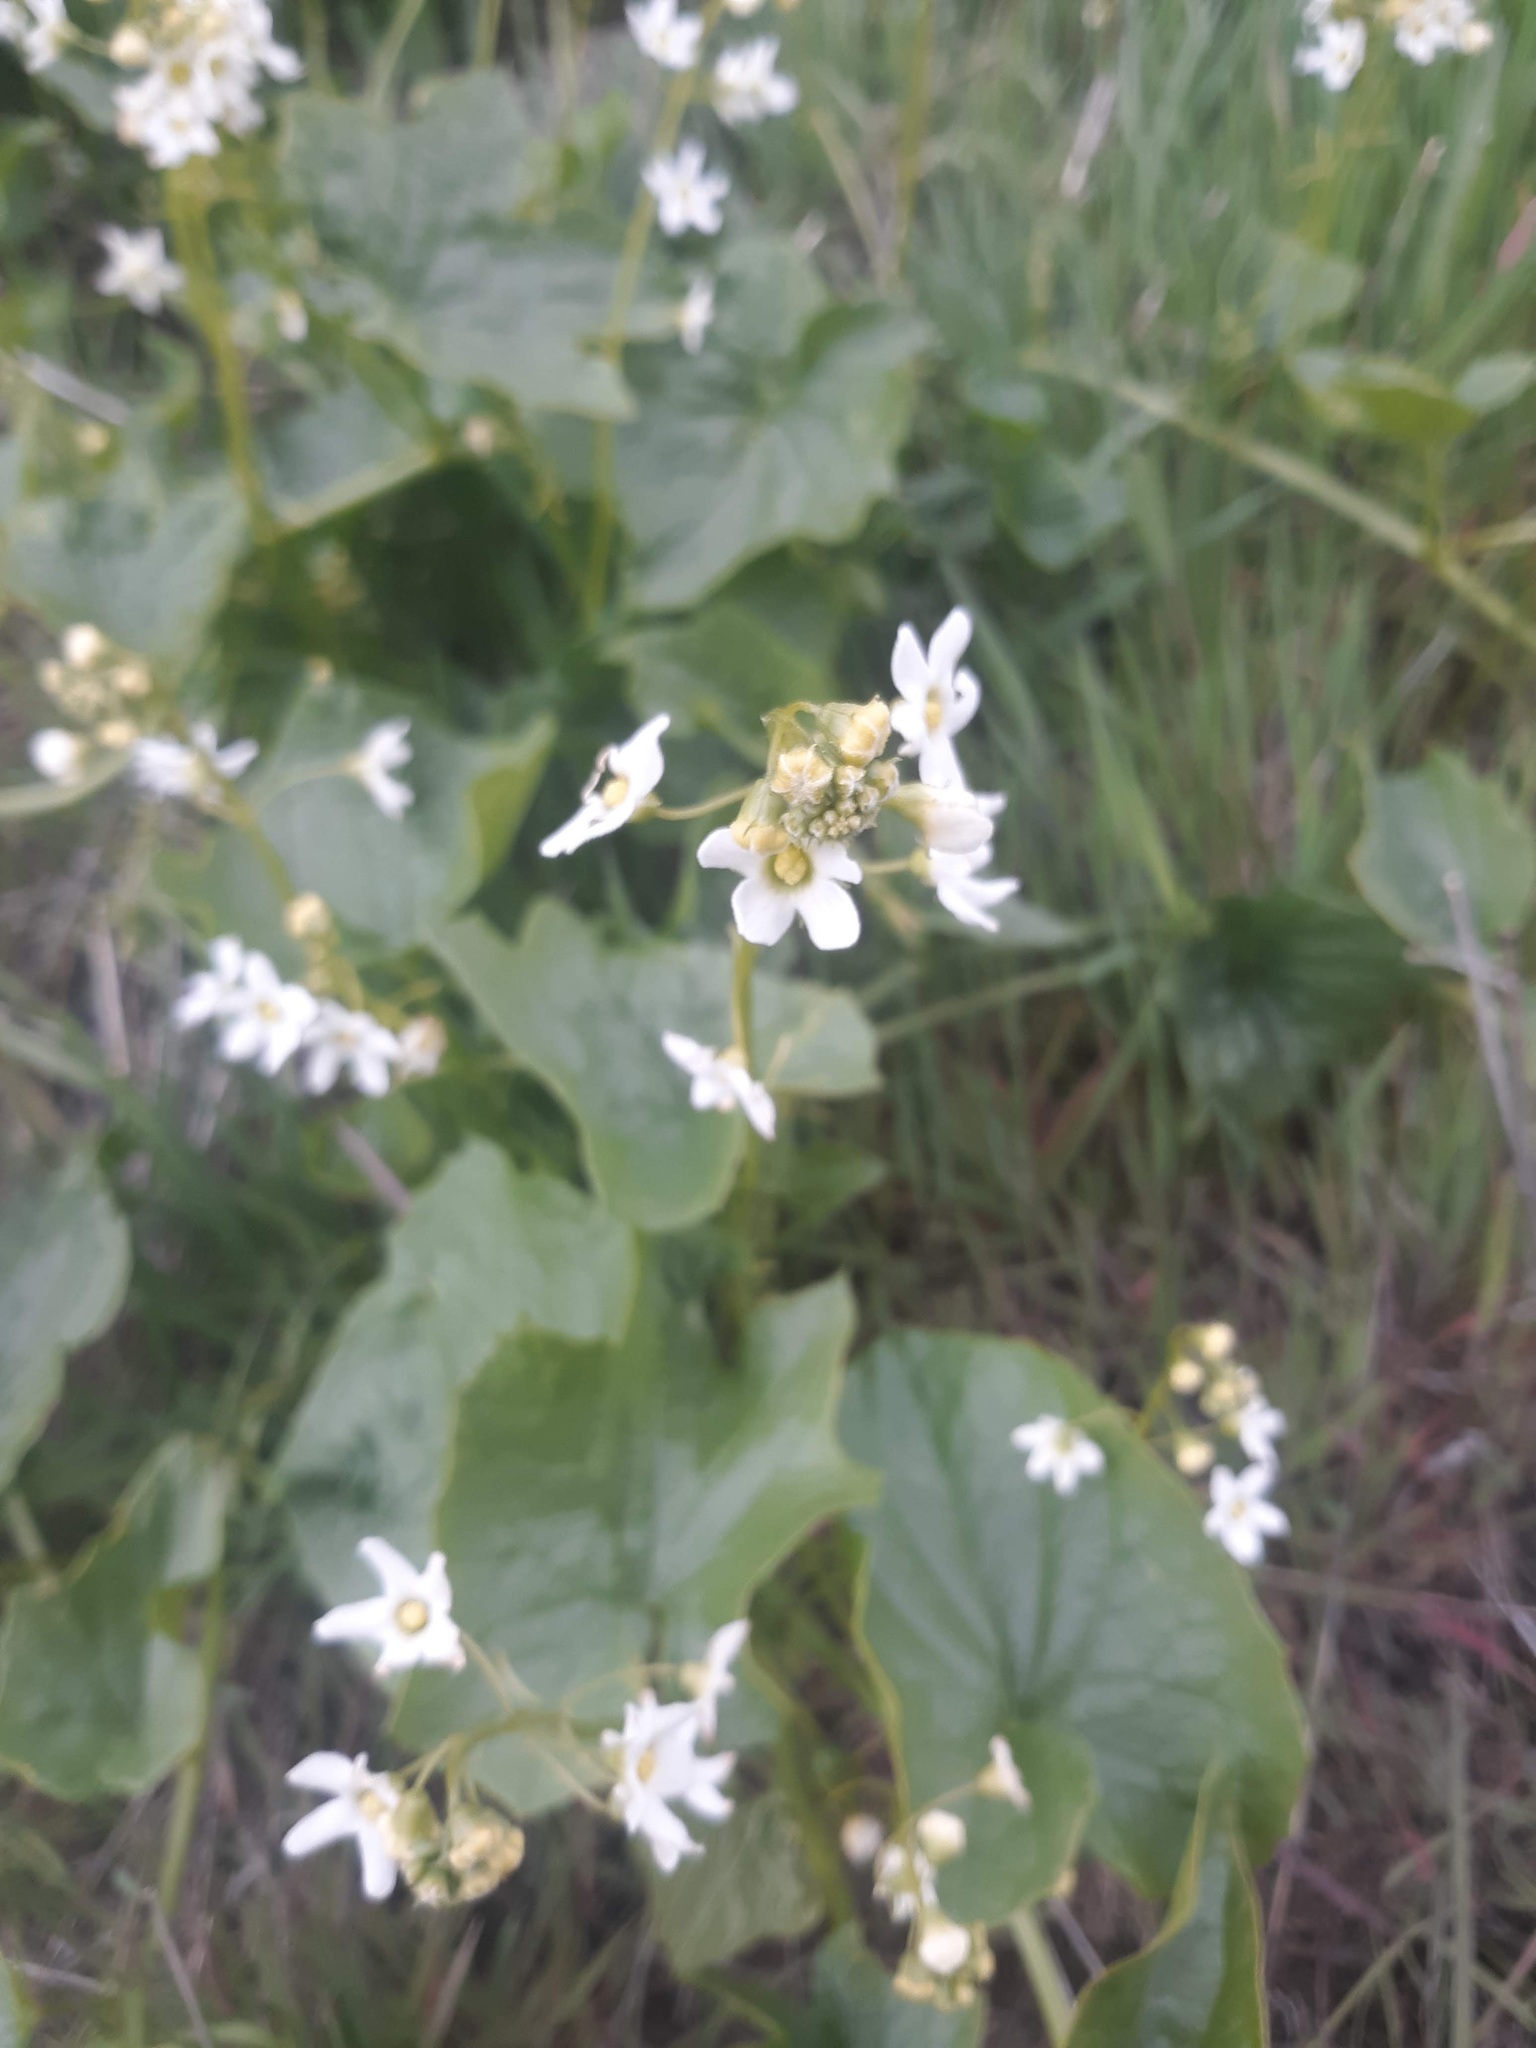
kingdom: Plantae
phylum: Tracheophyta
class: Magnoliopsida
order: Cucurbitales
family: Cucurbitaceae
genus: Marah
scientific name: Marah oregana
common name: Coastal manroot
